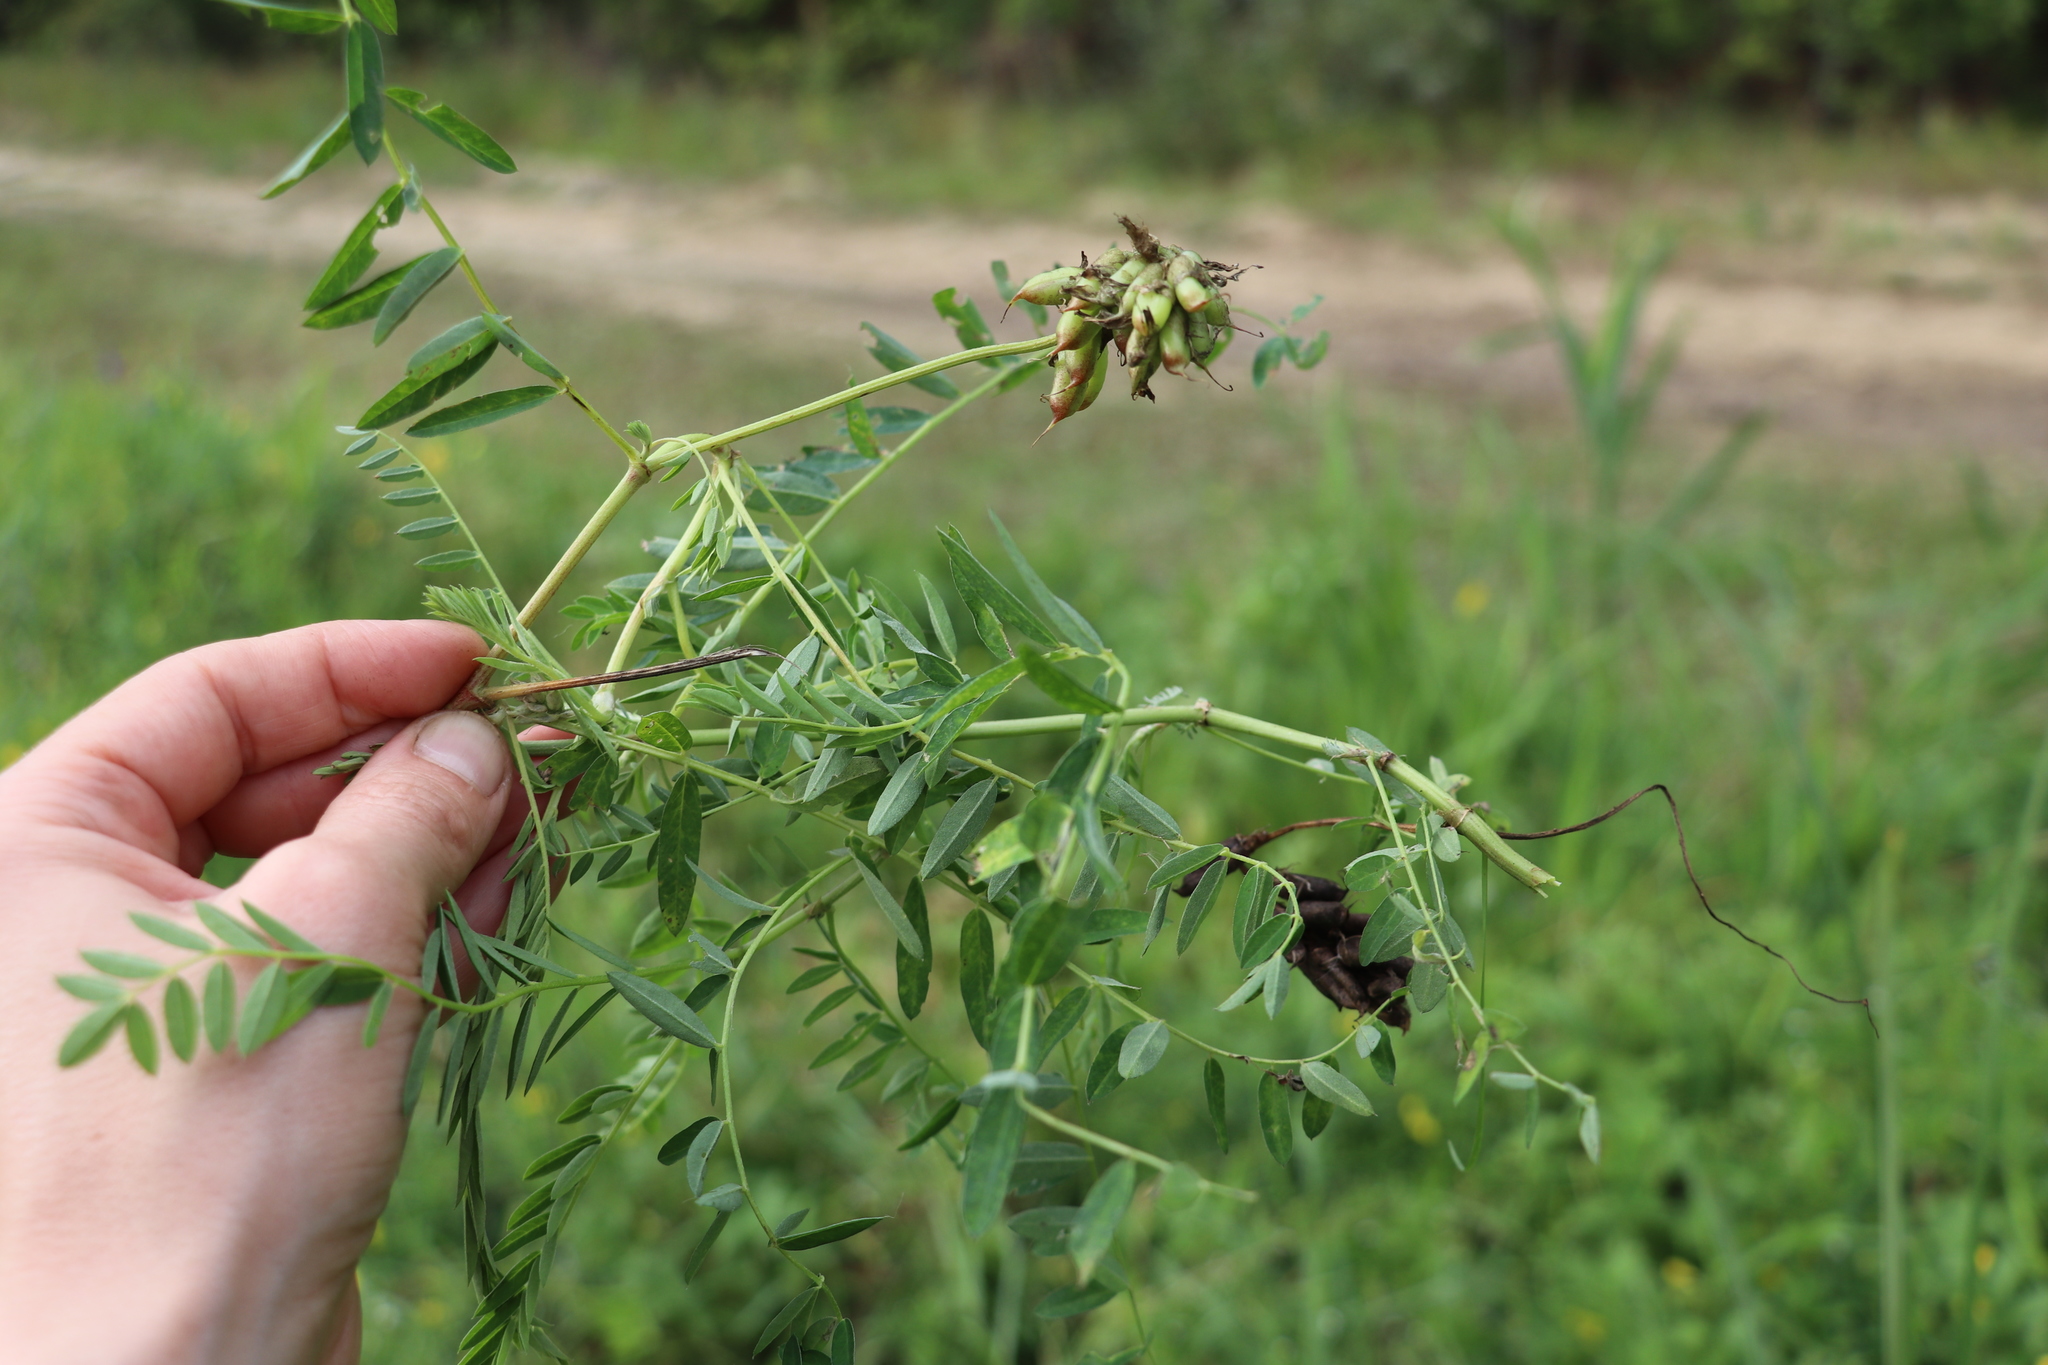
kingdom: Plantae
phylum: Tracheophyta
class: Magnoliopsida
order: Fabales
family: Fabaceae
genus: Astragalus
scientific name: Astragalus uliginosus
